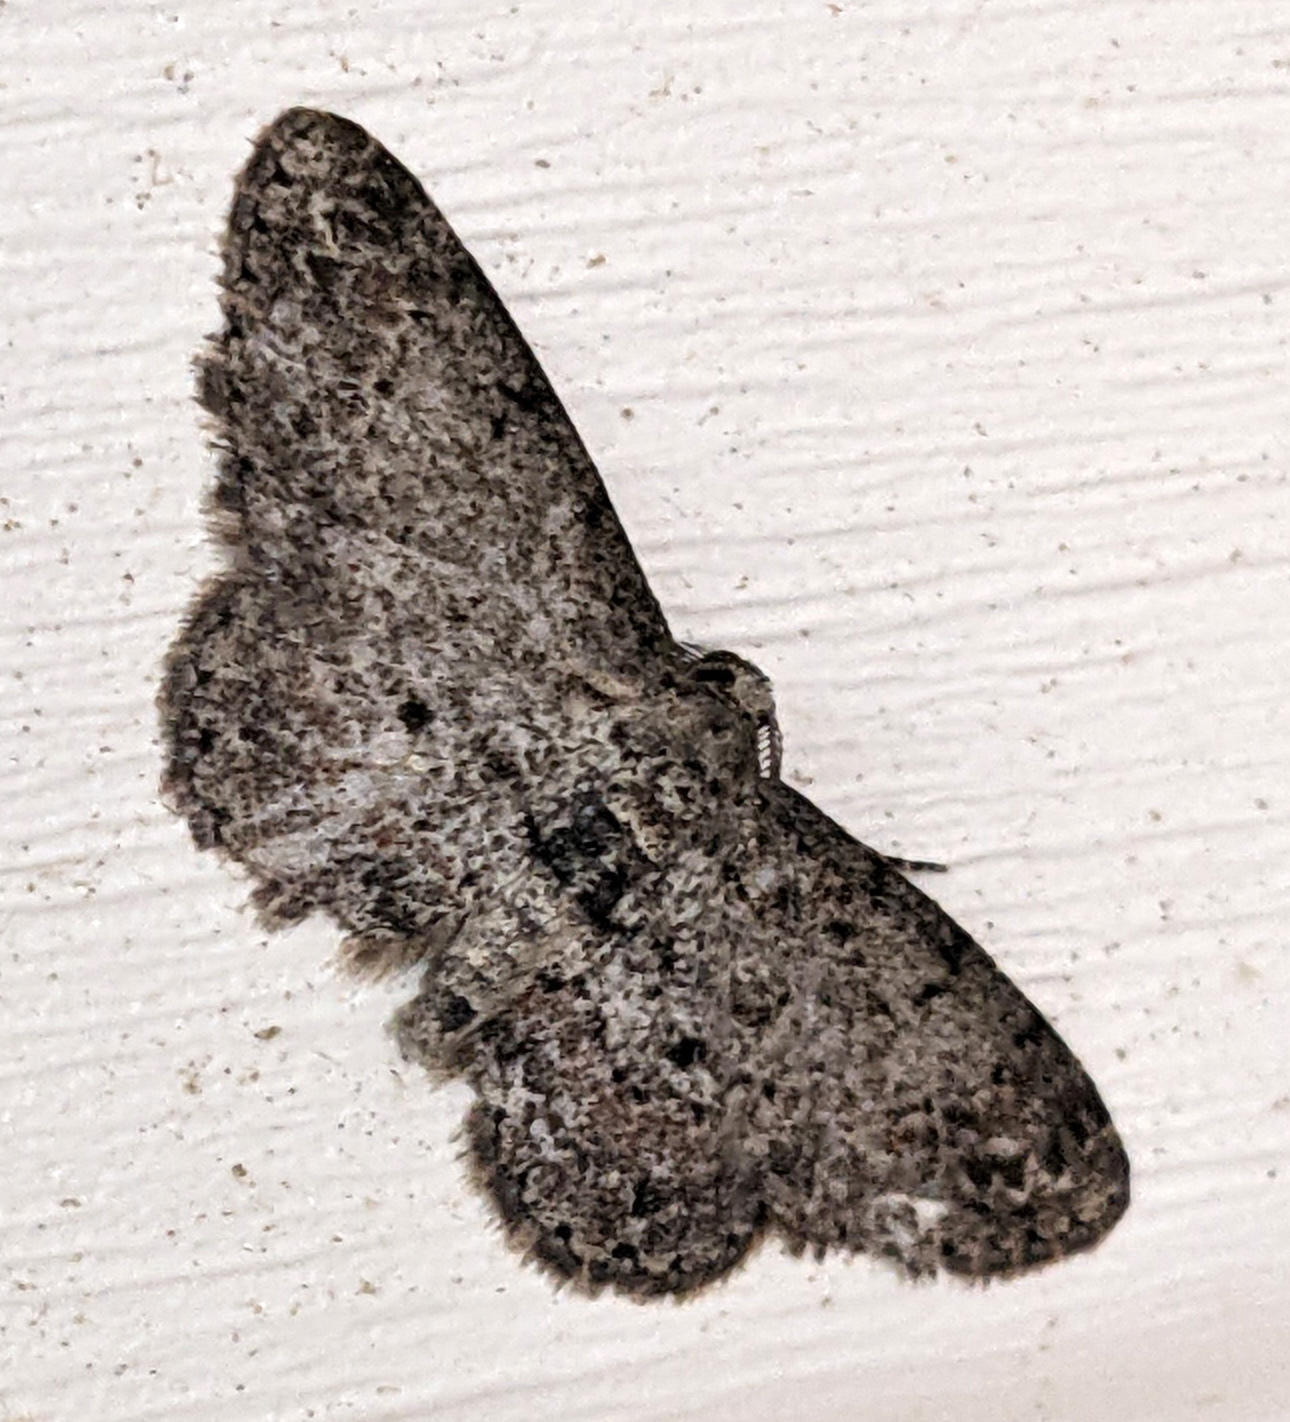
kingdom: Animalia
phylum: Arthropoda
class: Insecta
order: Lepidoptera
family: Geometridae
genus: Glenoides
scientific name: Glenoides texanaria
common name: Texas gray
